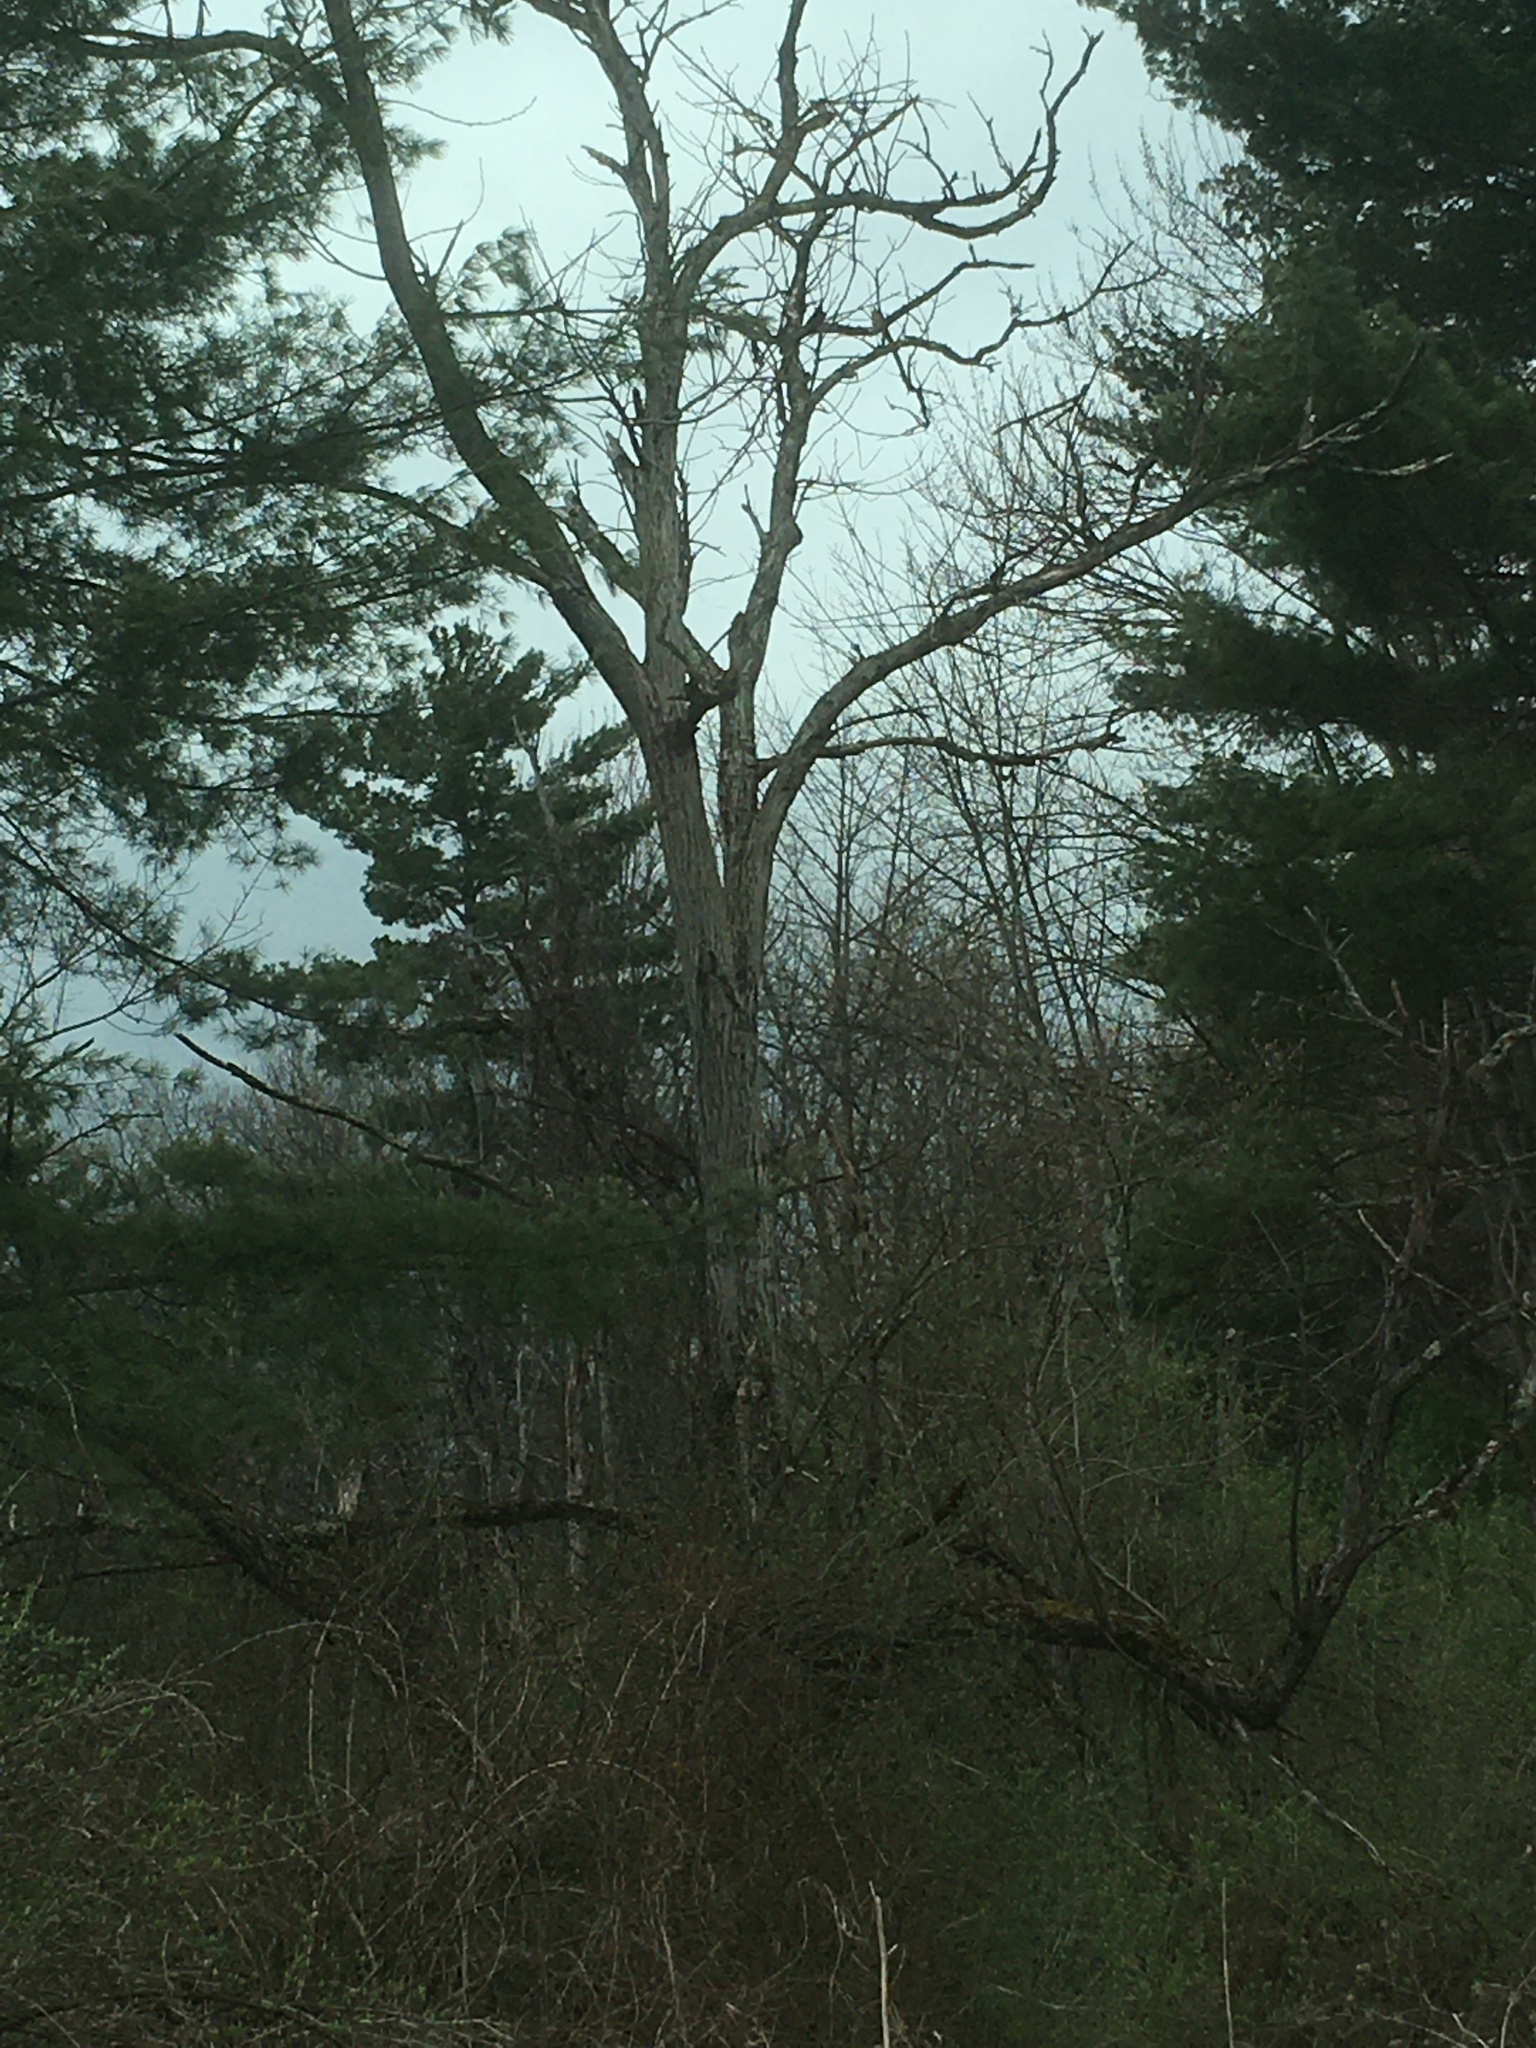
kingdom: Plantae
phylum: Tracheophyta
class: Magnoliopsida
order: Fagales
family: Juglandaceae
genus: Juglans
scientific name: Juglans cinerea
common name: Butternut
